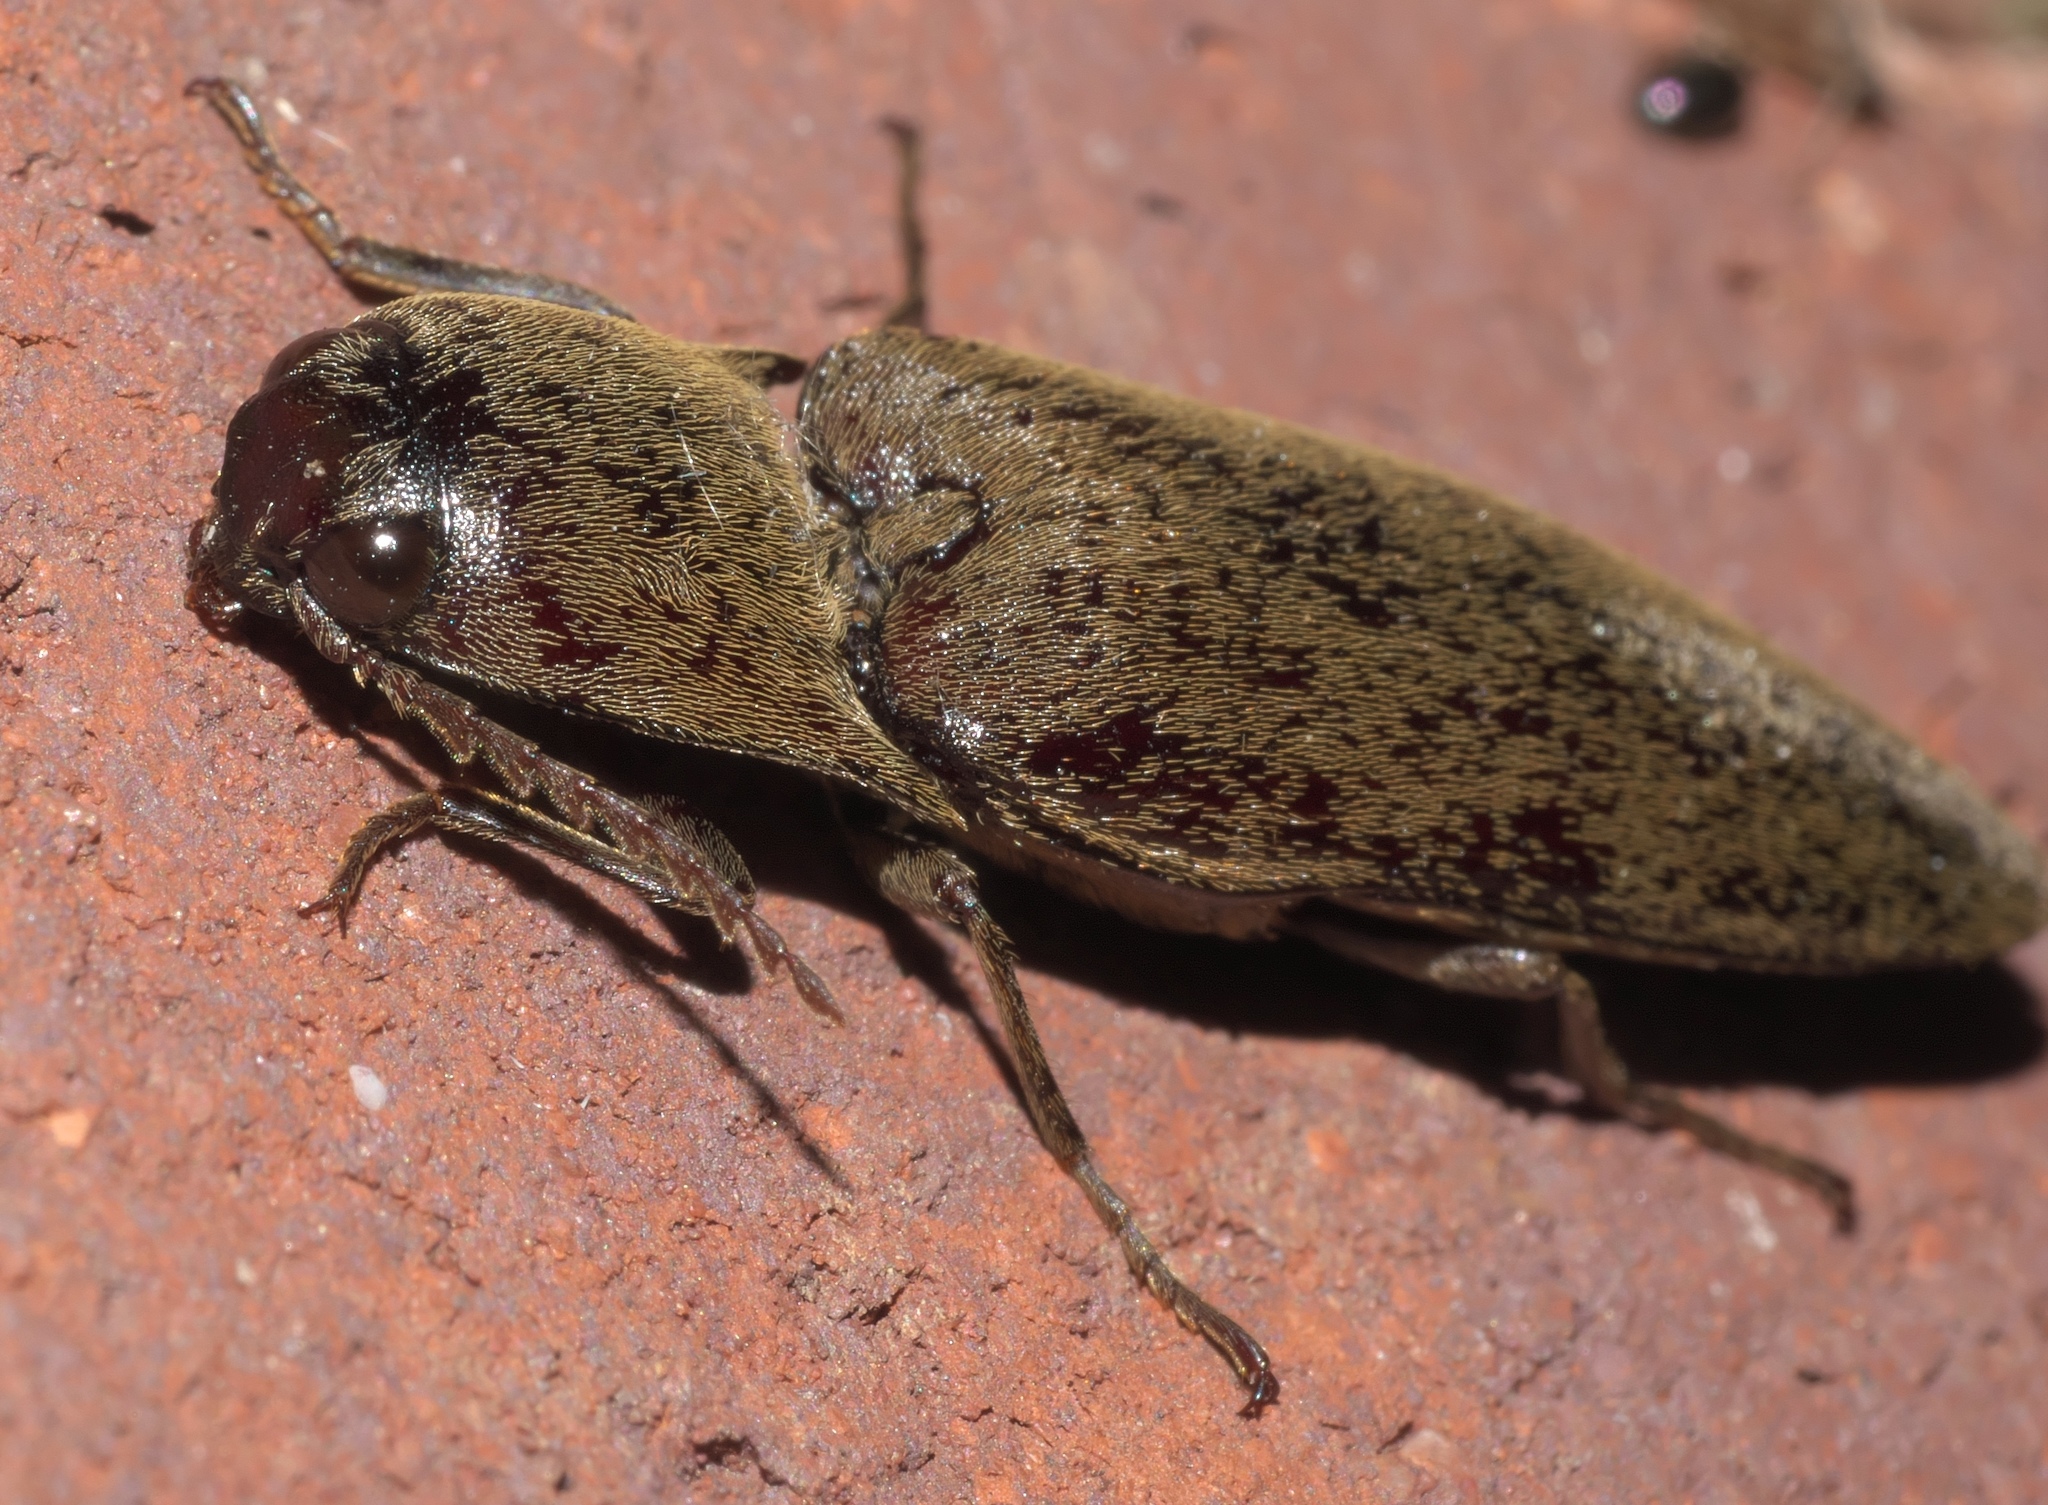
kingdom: Animalia
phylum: Arthropoda
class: Insecta
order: Coleoptera
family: Elateridae
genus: Orthostethus
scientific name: Orthostethus infuscatus
